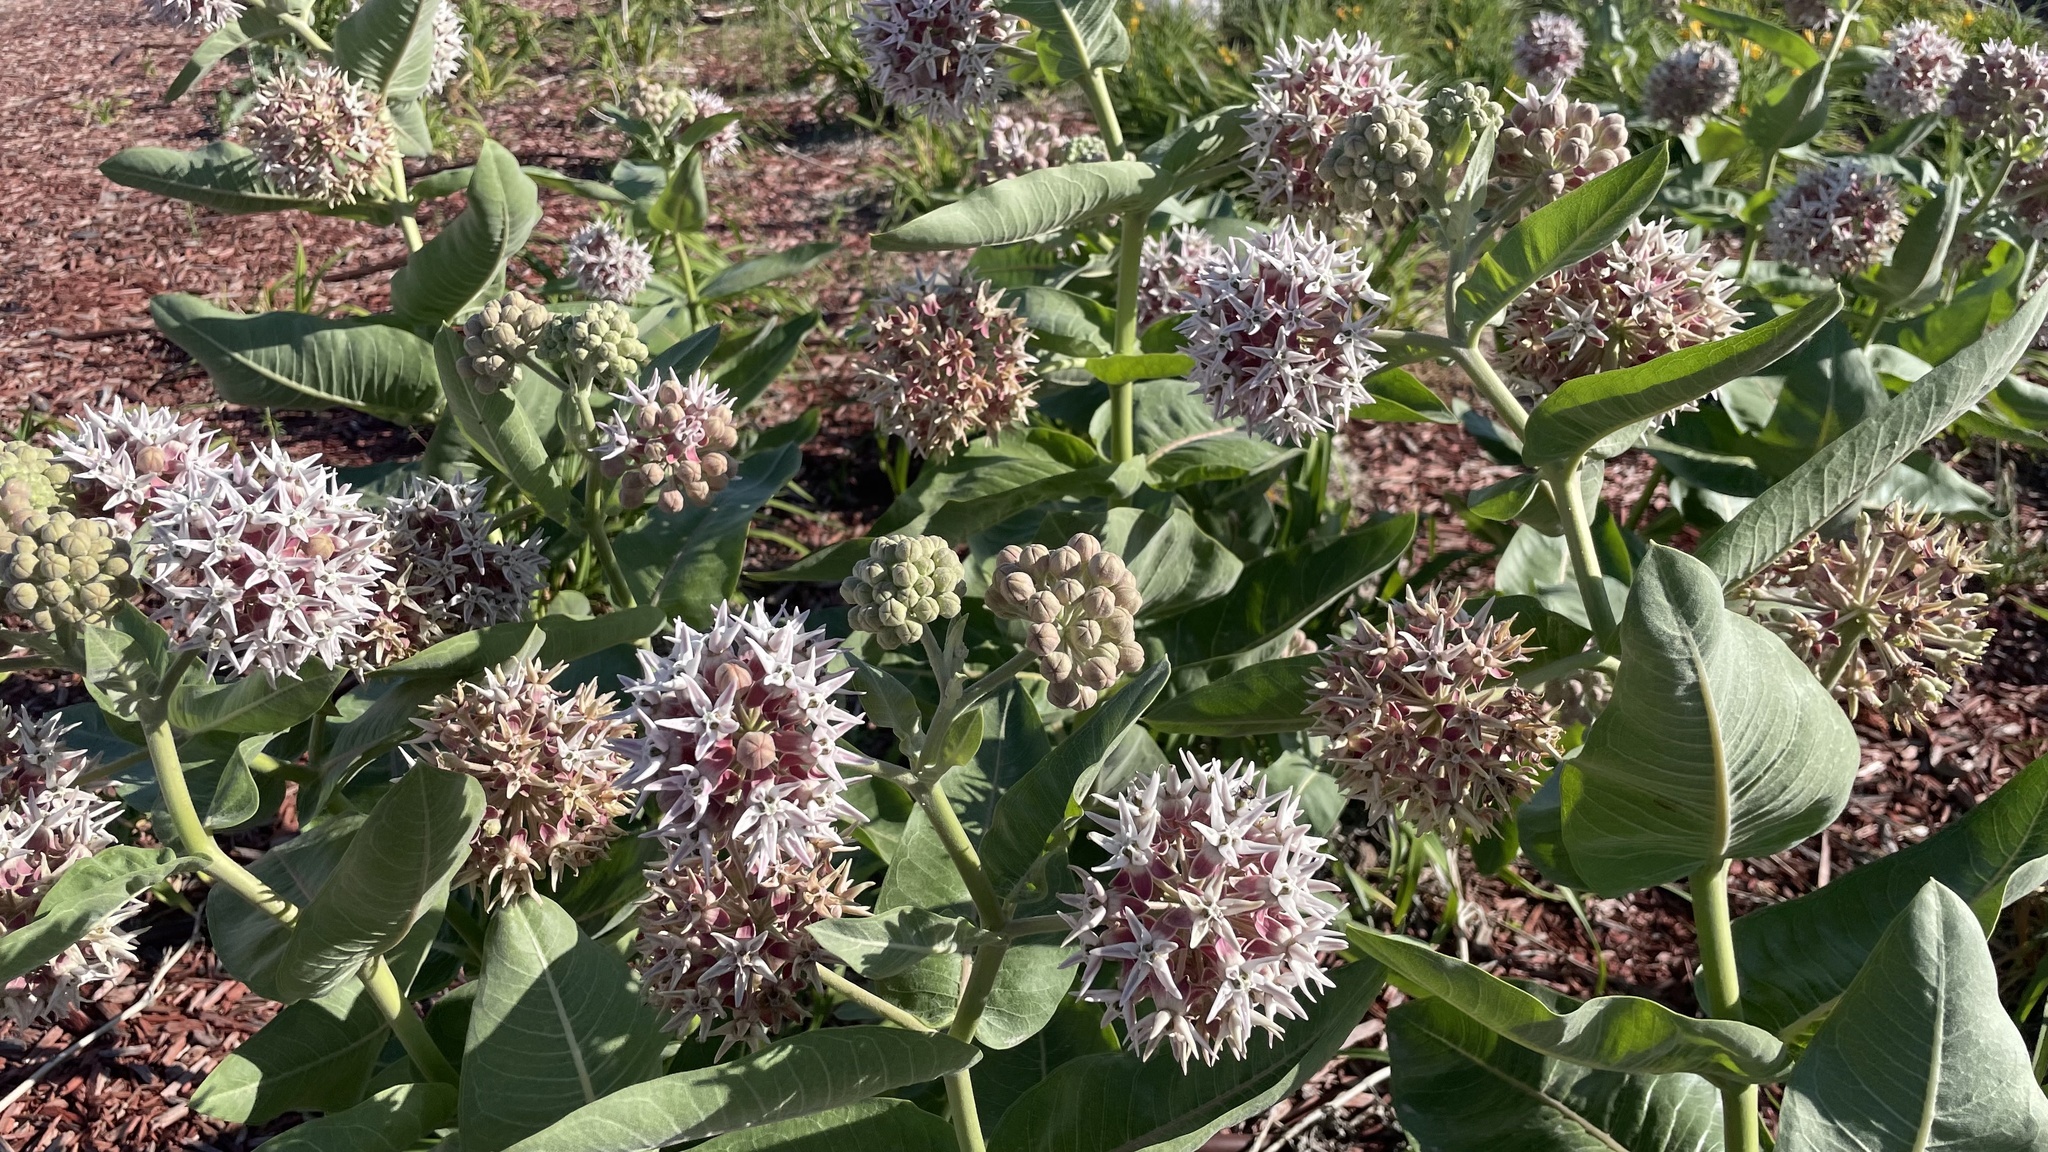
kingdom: Plantae
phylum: Tracheophyta
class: Magnoliopsida
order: Gentianales
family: Apocynaceae
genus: Asclepias
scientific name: Asclepias speciosa
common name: Showy milkweed
